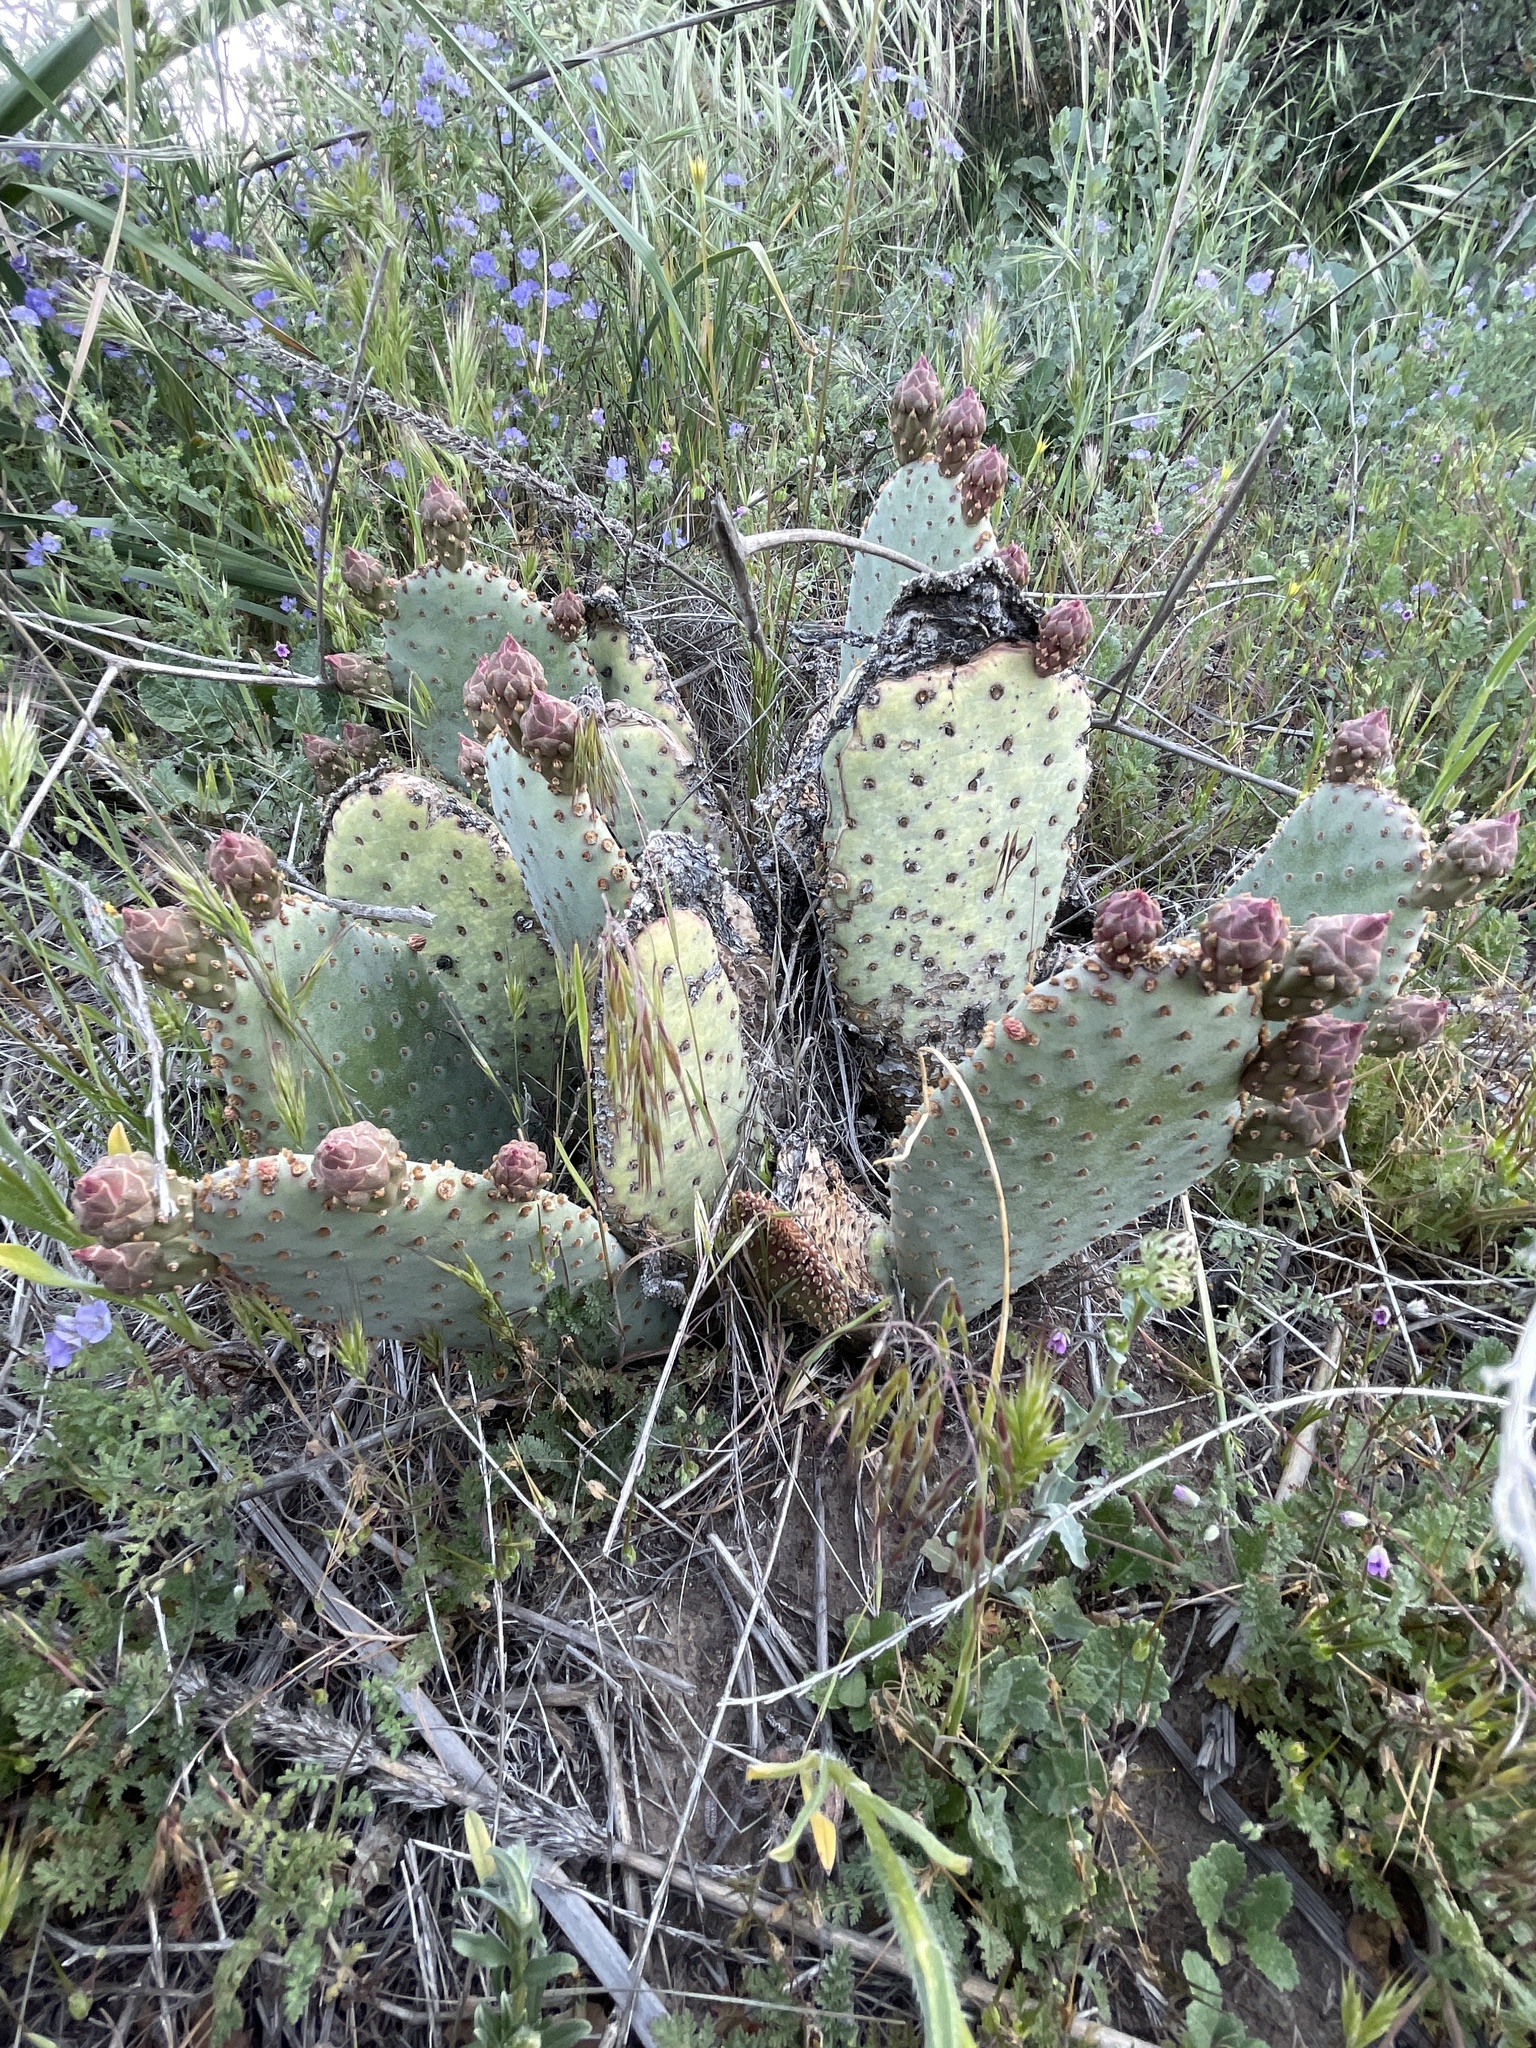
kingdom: Plantae
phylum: Tracheophyta
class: Magnoliopsida
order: Caryophyllales
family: Cactaceae
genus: Opuntia
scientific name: Opuntia basilaris
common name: Beavertail prickly-pear
